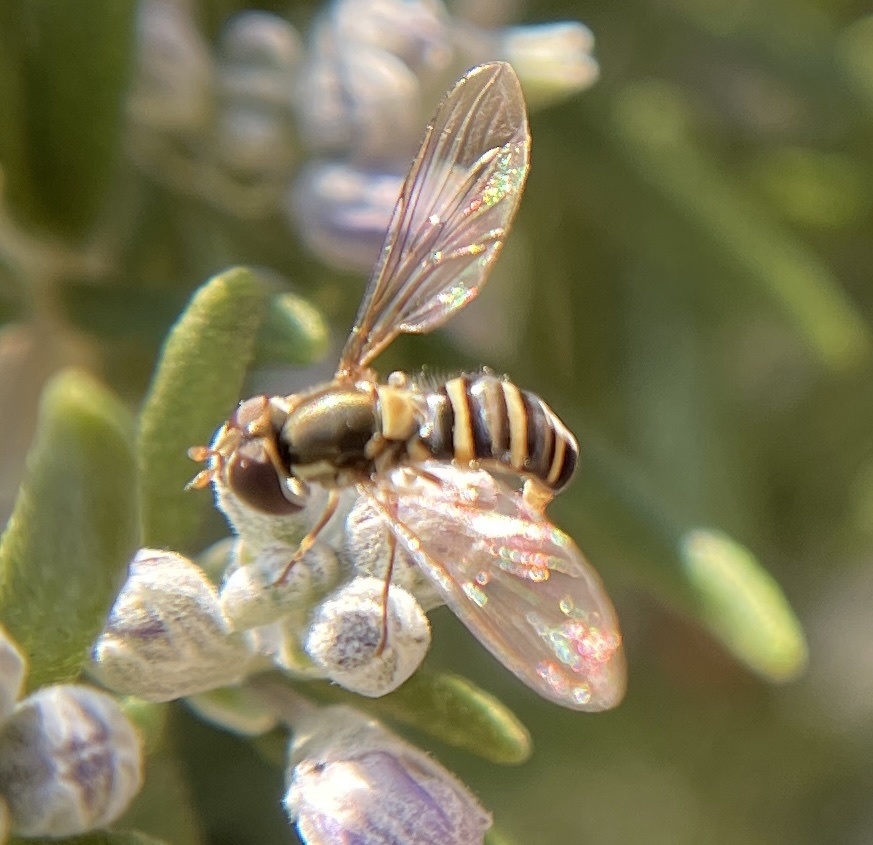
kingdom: Animalia
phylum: Arthropoda
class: Insecta
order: Diptera
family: Syrphidae
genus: Fazia
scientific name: Fazia micrura
